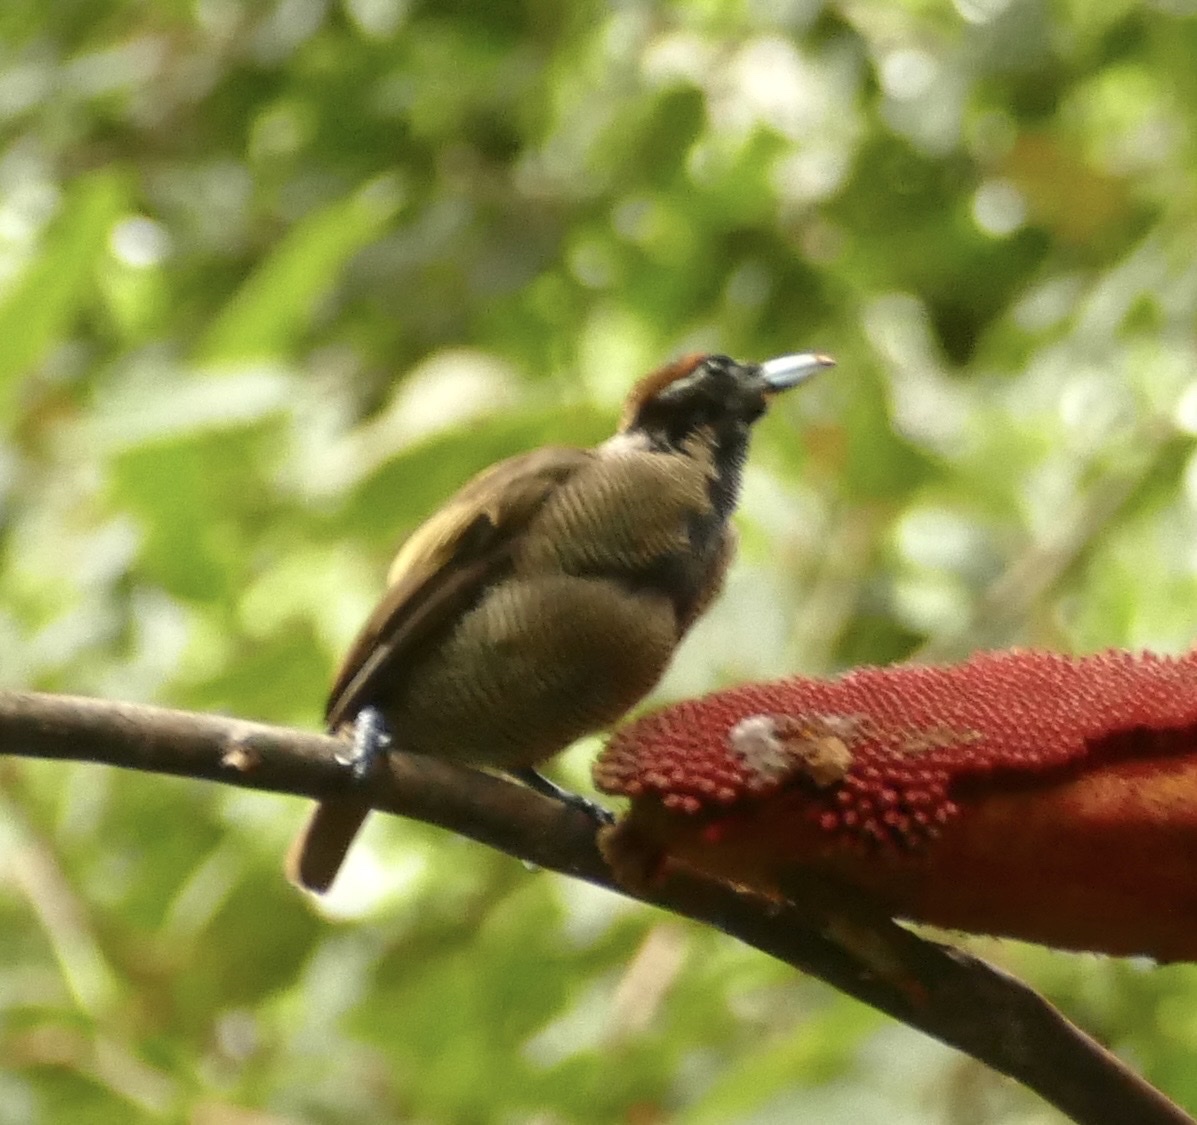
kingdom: Animalia
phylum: Chordata
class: Aves
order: Passeriformes
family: Paradisaeidae
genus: Diphyllodes
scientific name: Diphyllodes magnificus
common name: Magnificent bird-of-paradise
